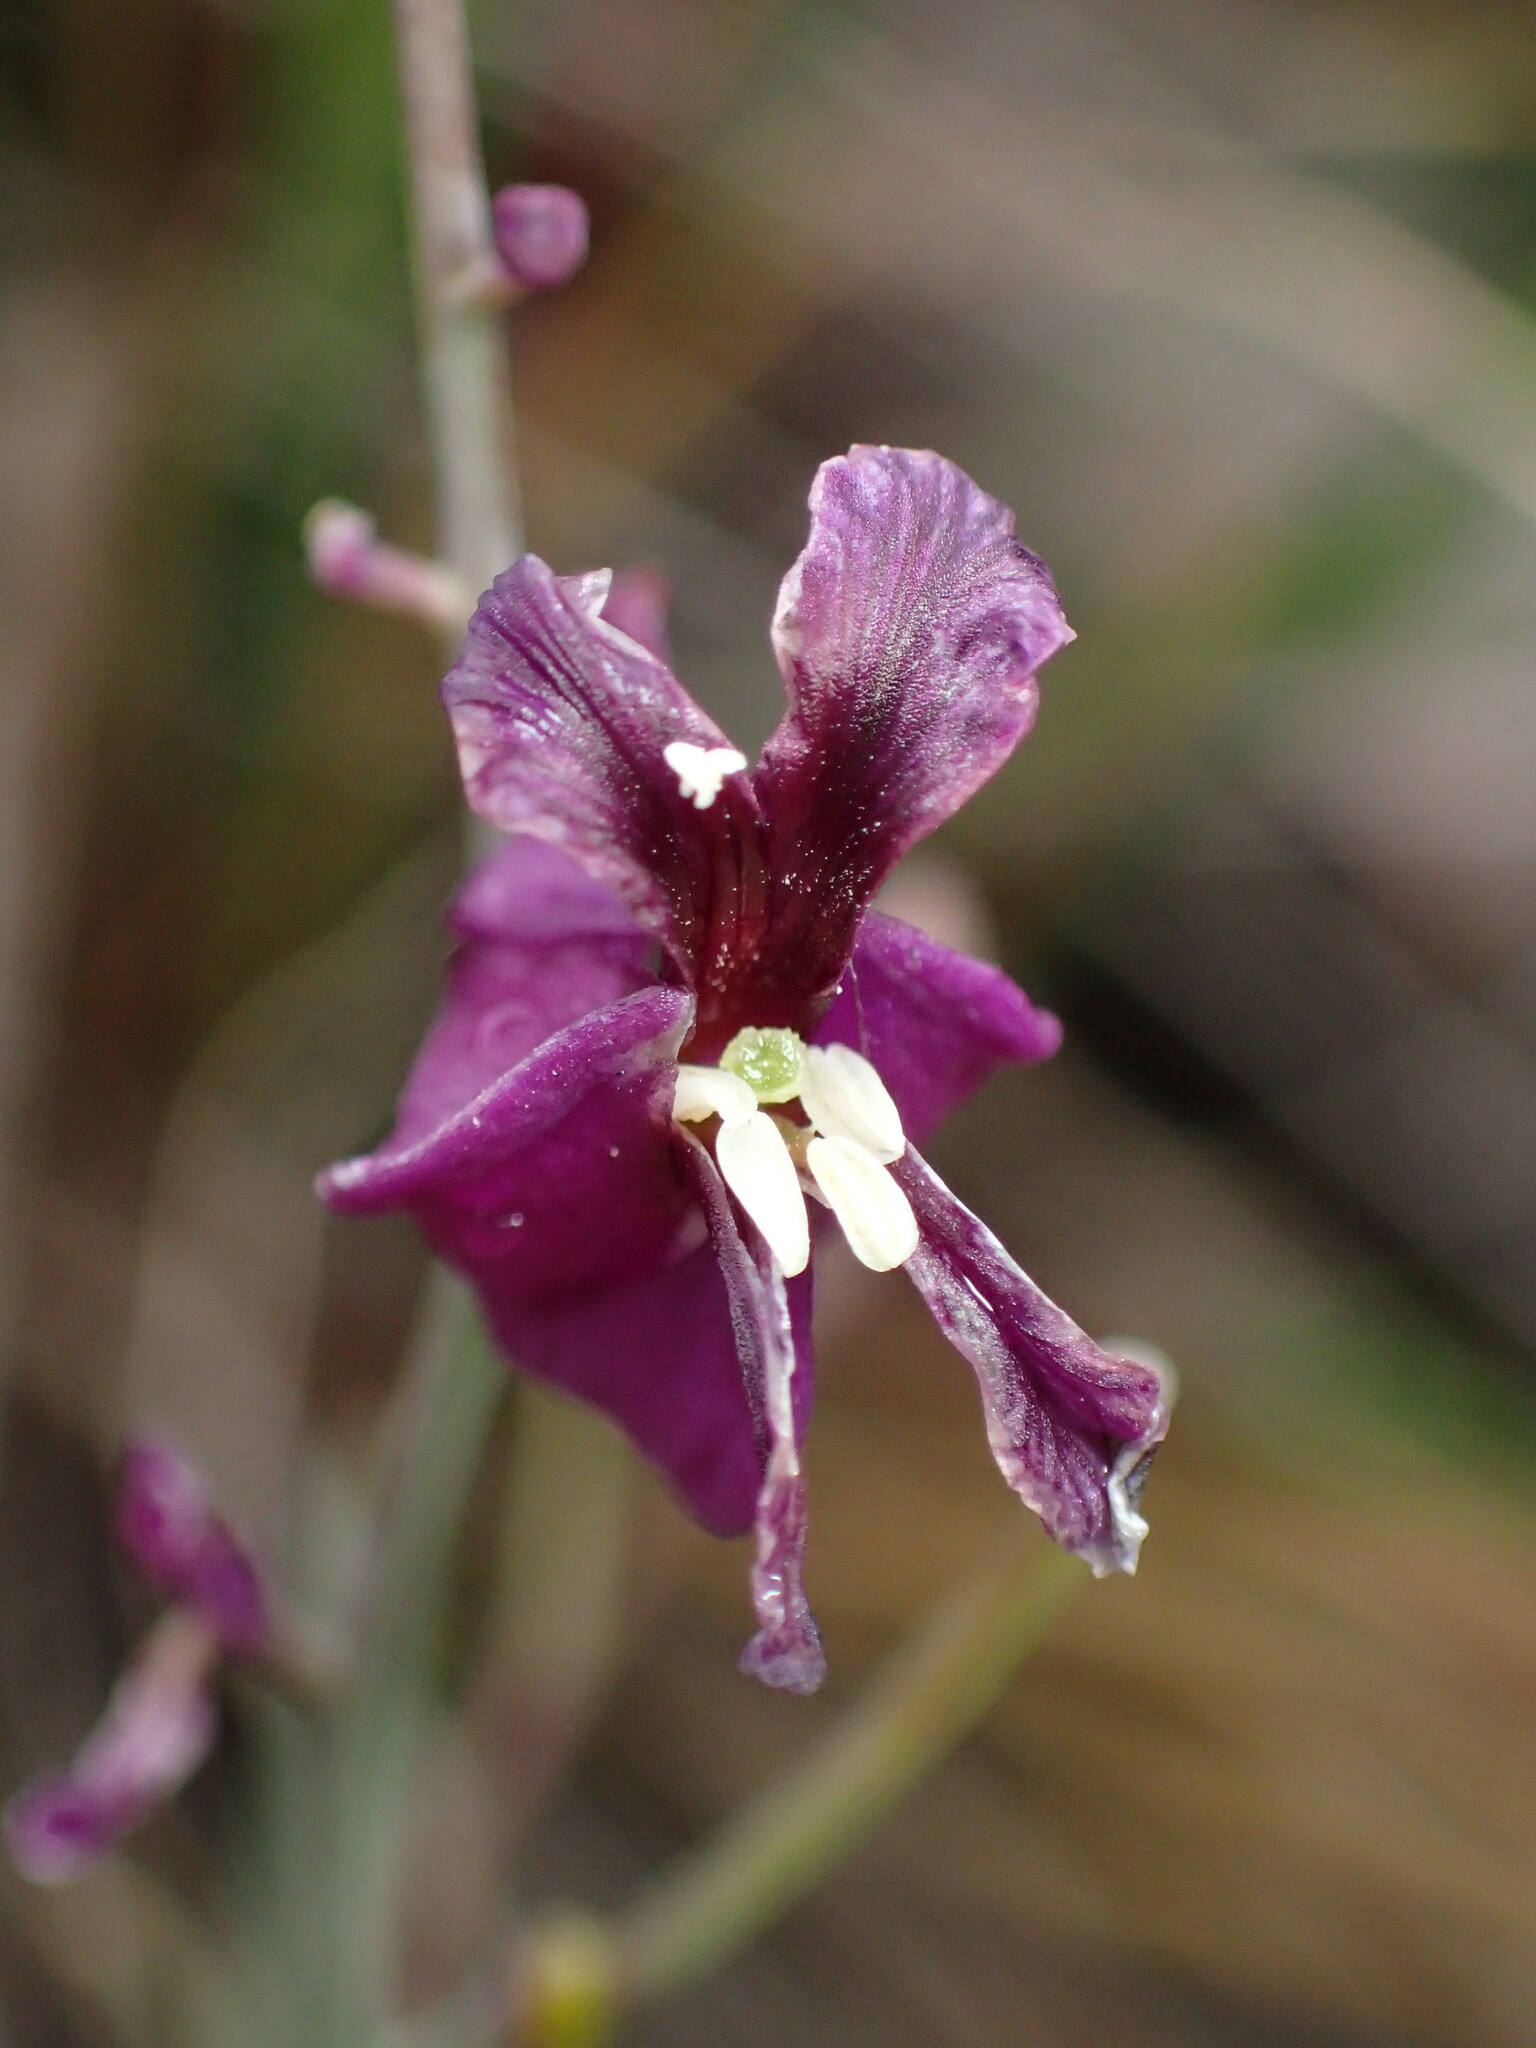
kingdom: Plantae
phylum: Tracheophyta
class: Magnoliopsida
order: Brassicales
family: Brassicaceae
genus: Streptanthus
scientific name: Streptanthus glandulosus
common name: Jewel-flower
